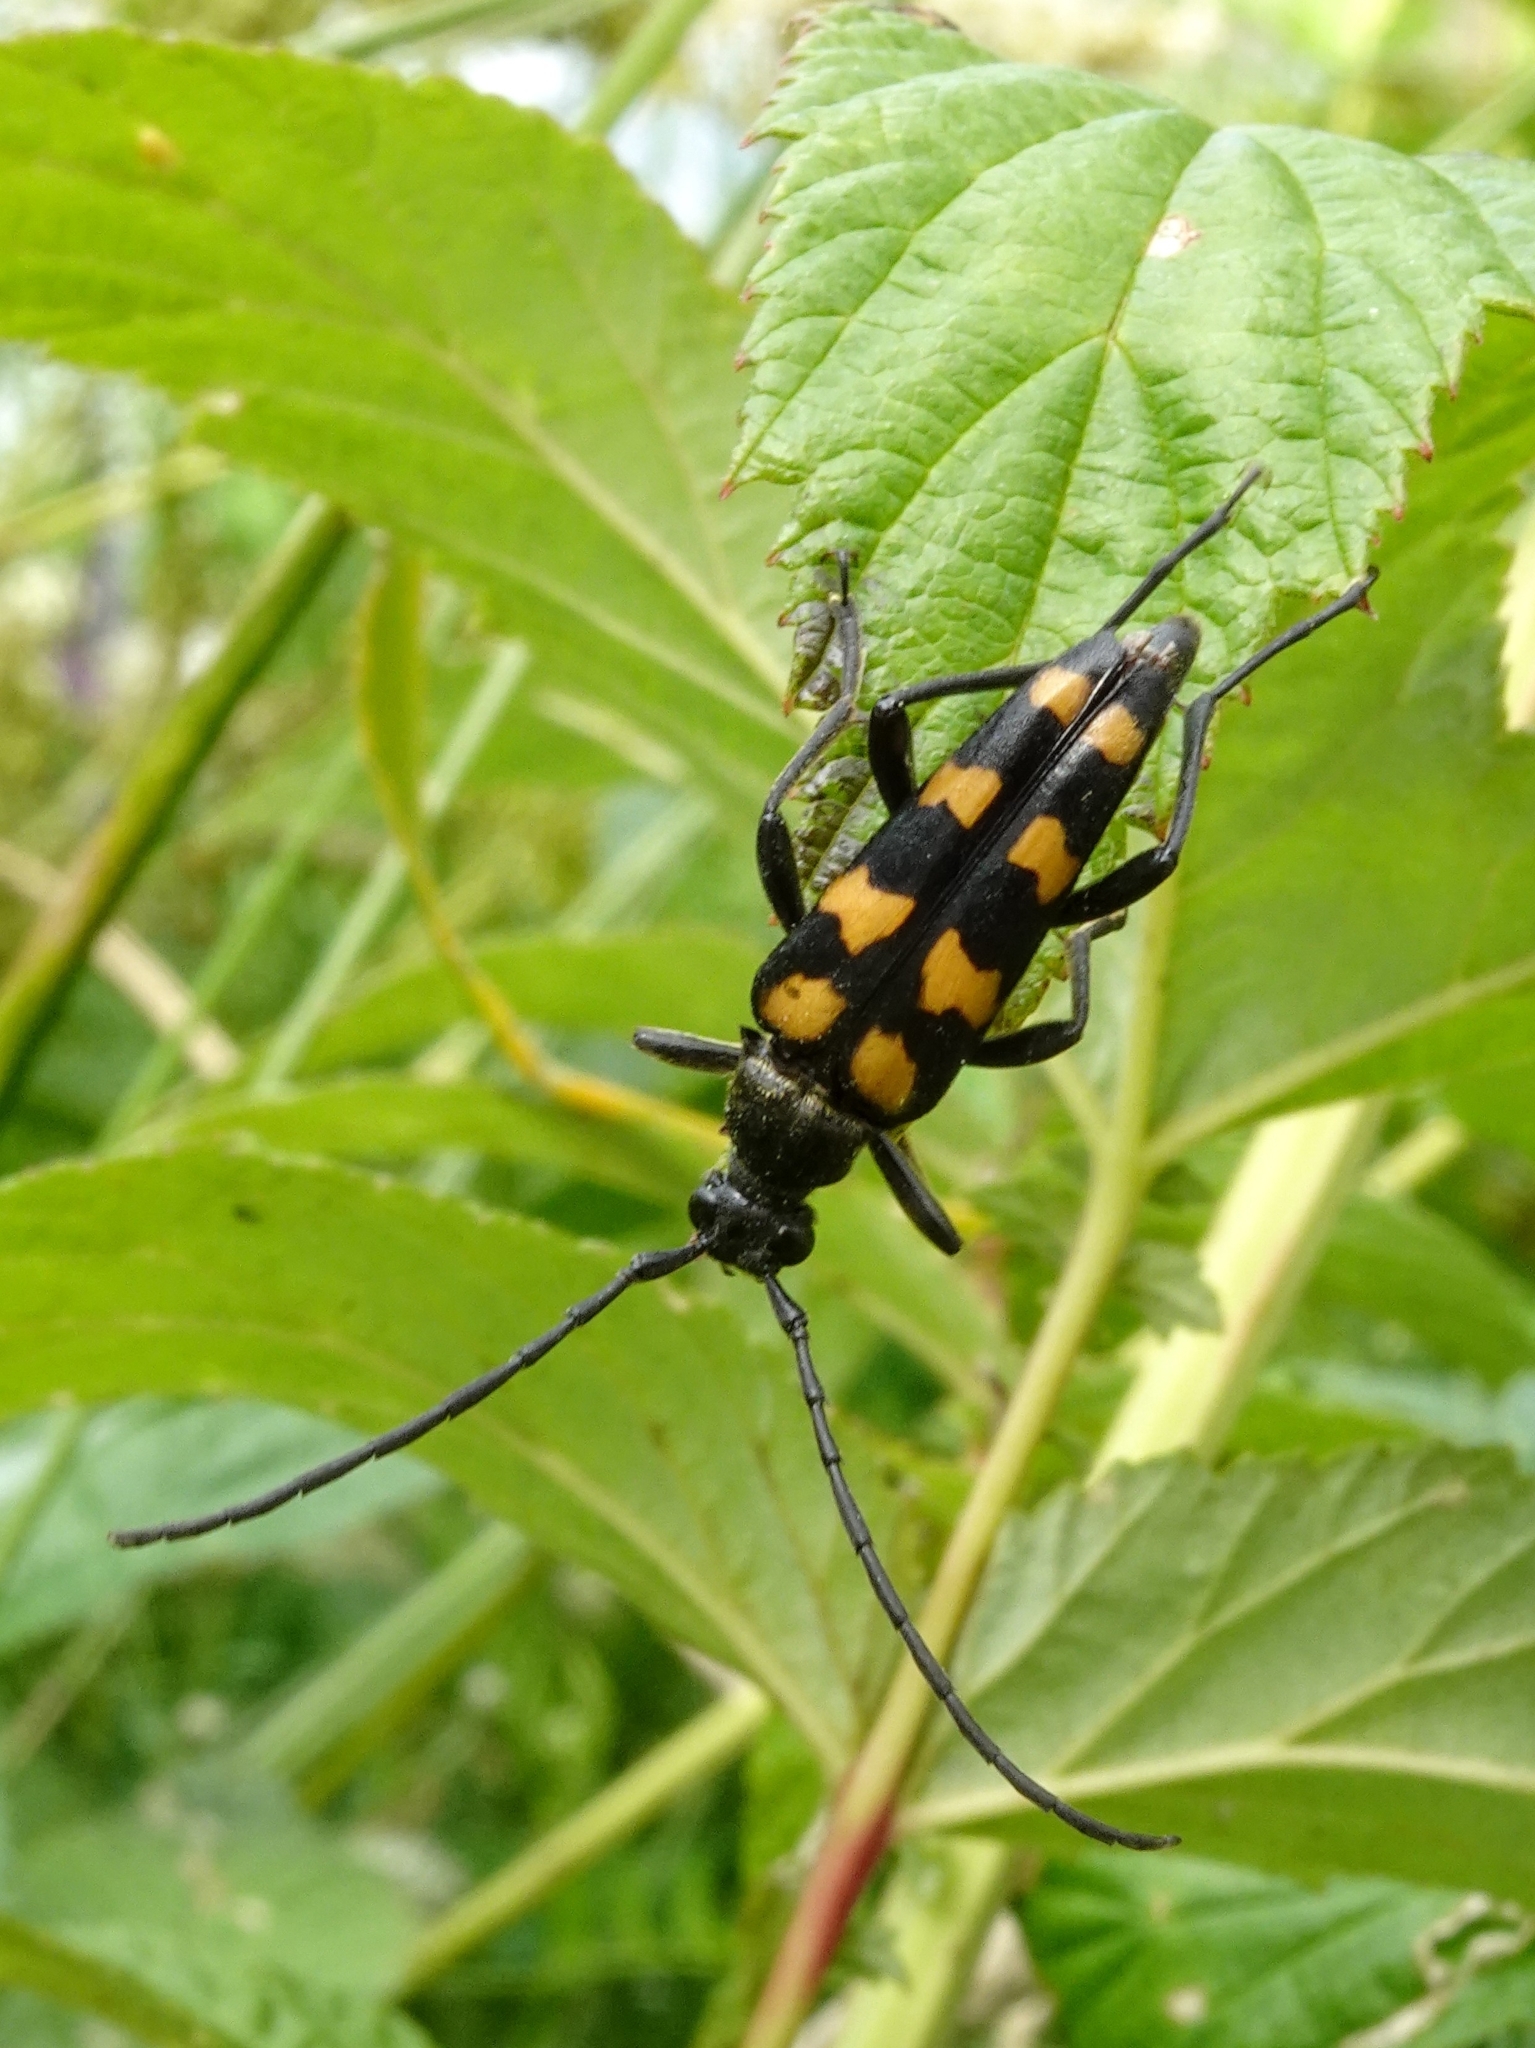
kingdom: Animalia
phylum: Arthropoda
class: Insecta
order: Coleoptera
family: Cerambycidae
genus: Leptura
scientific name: Leptura quadrifasciata
